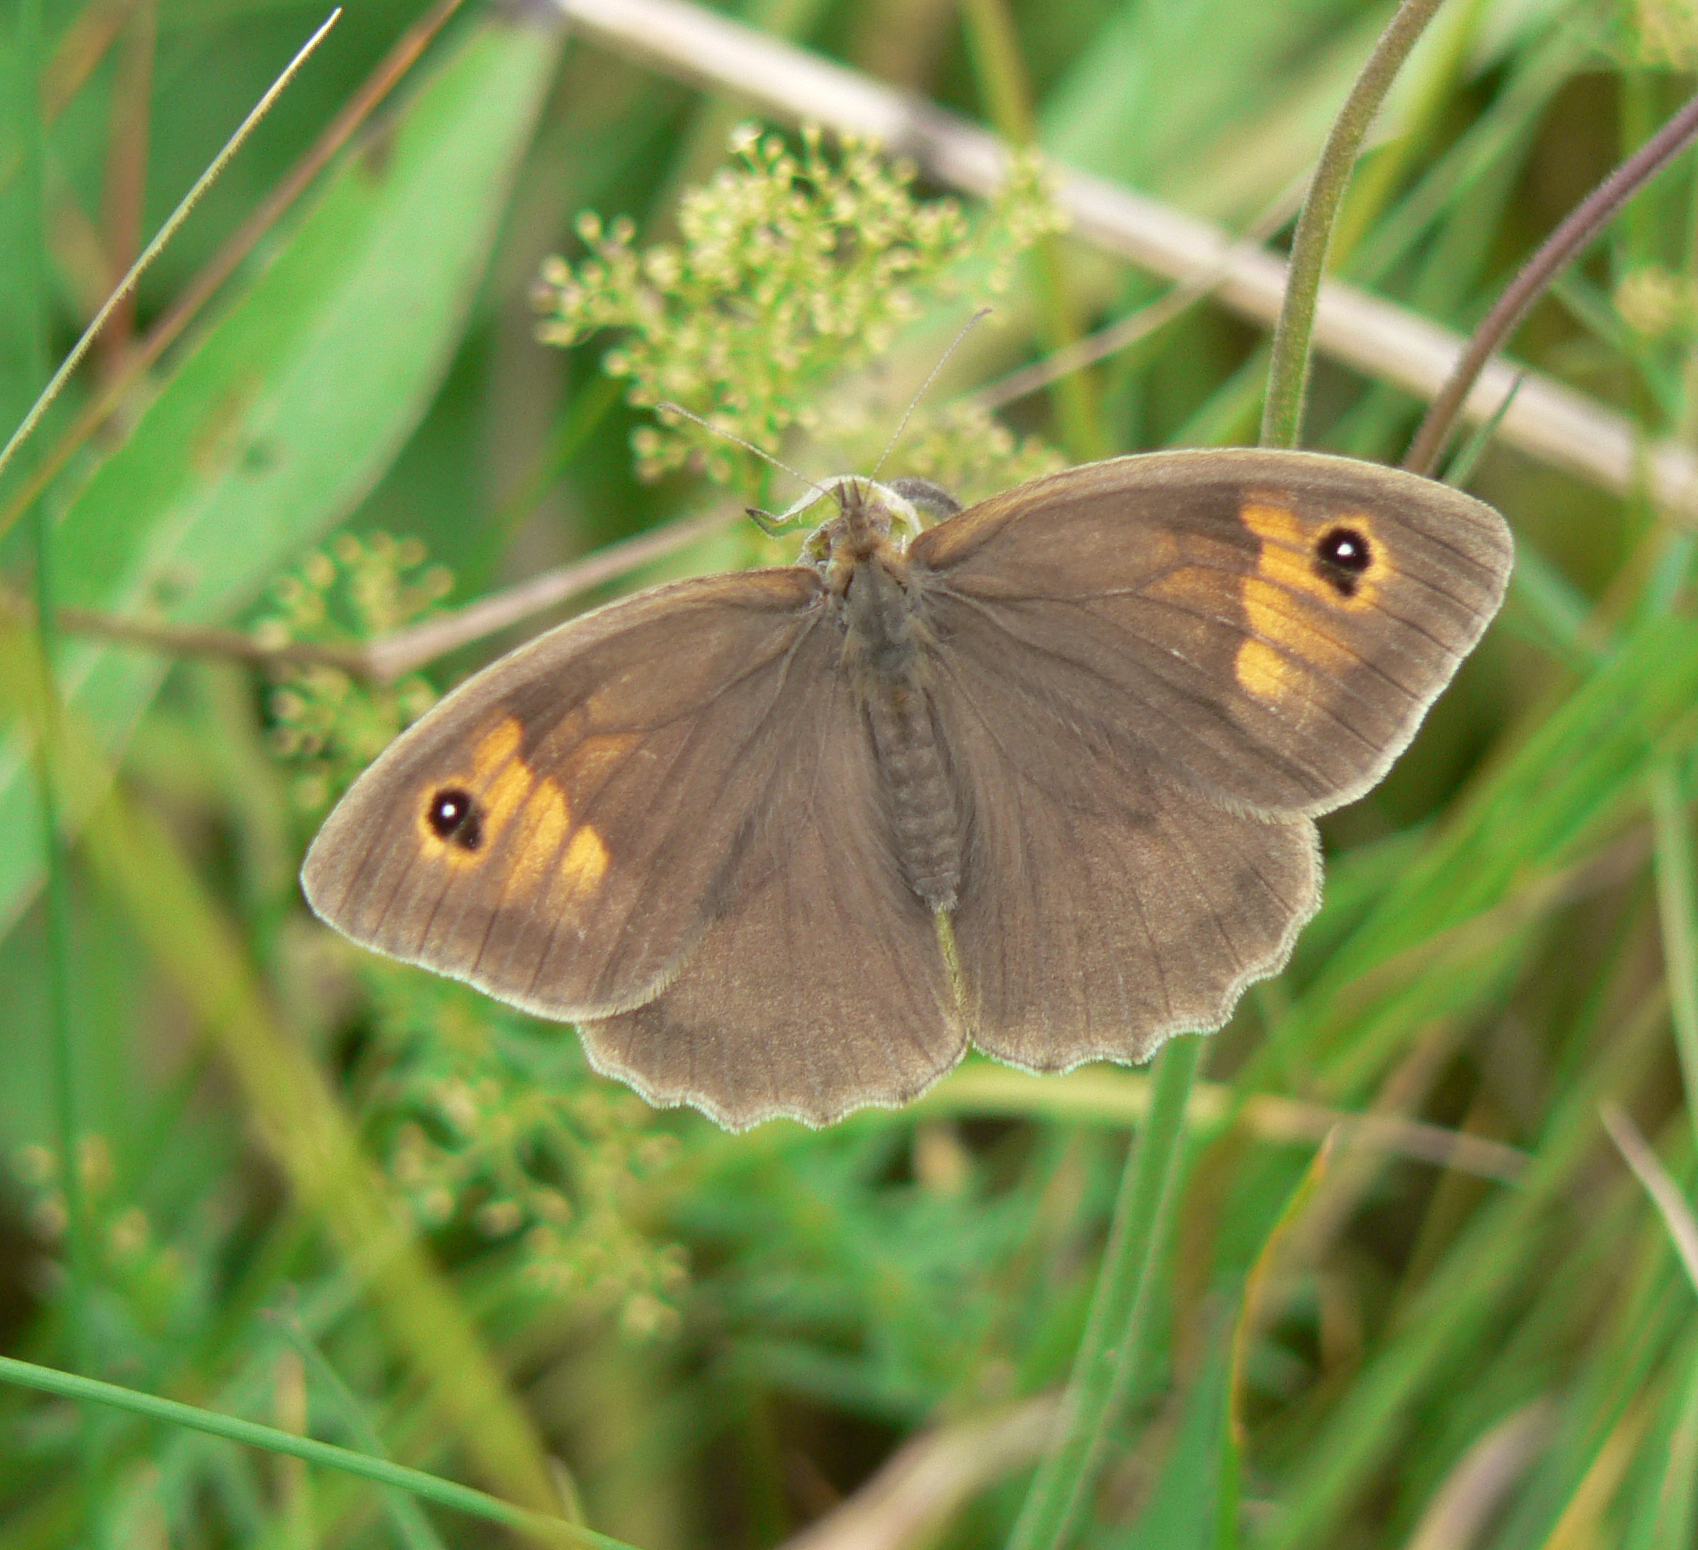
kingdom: Animalia
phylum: Arthropoda
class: Insecta
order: Lepidoptera
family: Nymphalidae
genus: Maniola
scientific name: Maniola jurtina
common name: Meadow brown
